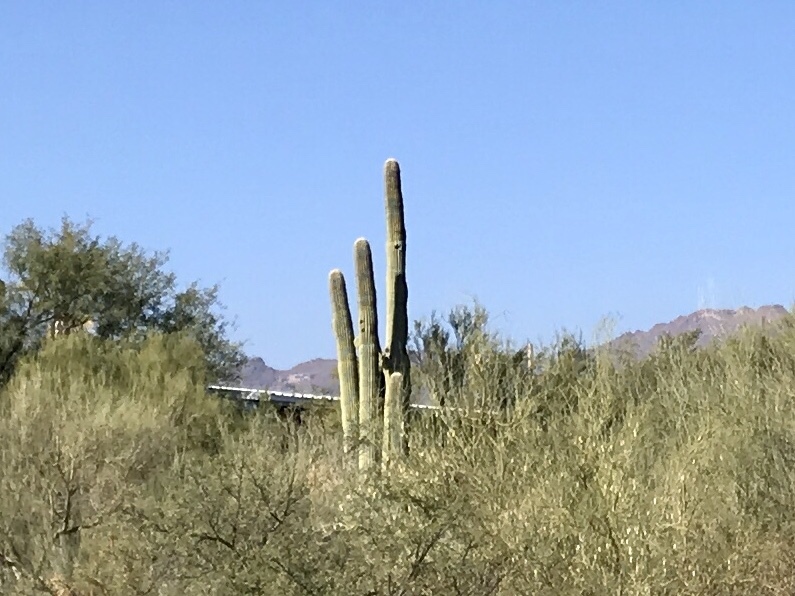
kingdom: Plantae
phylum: Tracheophyta
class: Magnoliopsida
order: Caryophyllales
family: Cactaceae
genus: Carnegiea
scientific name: Carnegiea gigantea
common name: Saguaro
